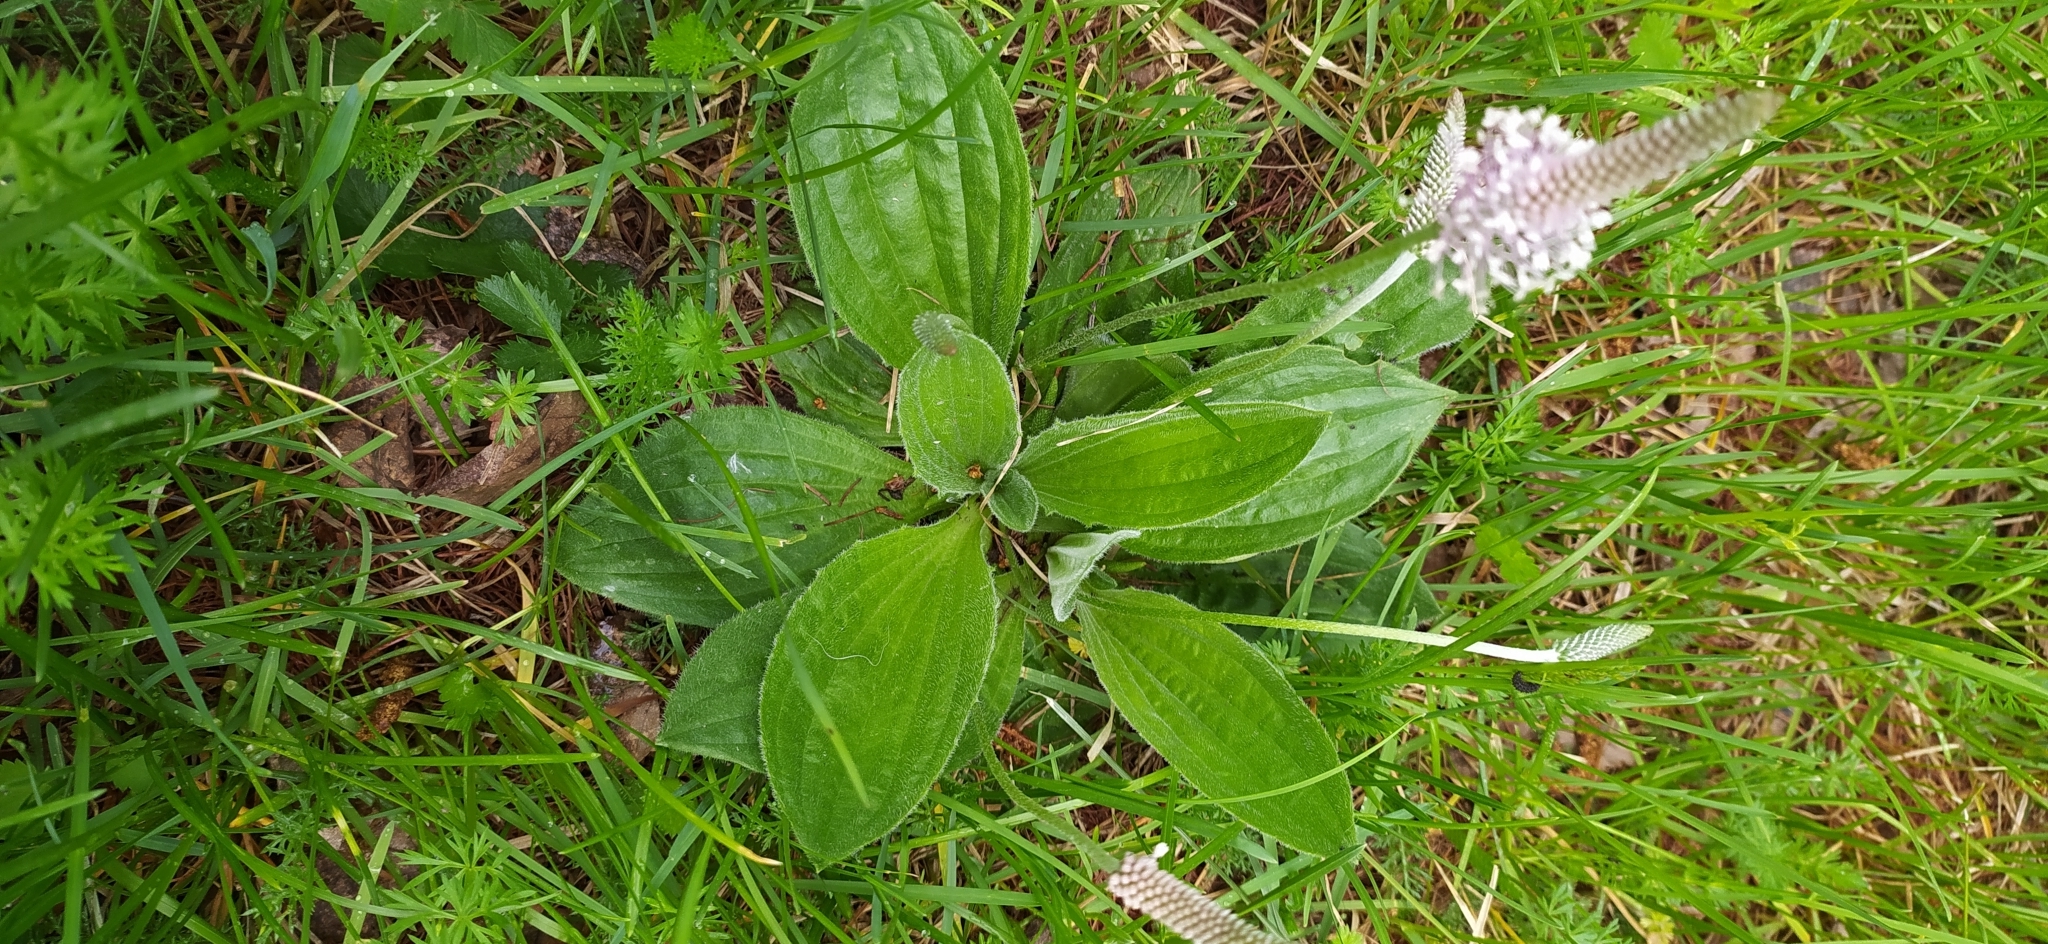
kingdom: Plantae
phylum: Tracheophyta
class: Magnoliopsida
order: Lamiales
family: Plantaginaceae
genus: Plantago
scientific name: Plantago media
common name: Hoary plantain
